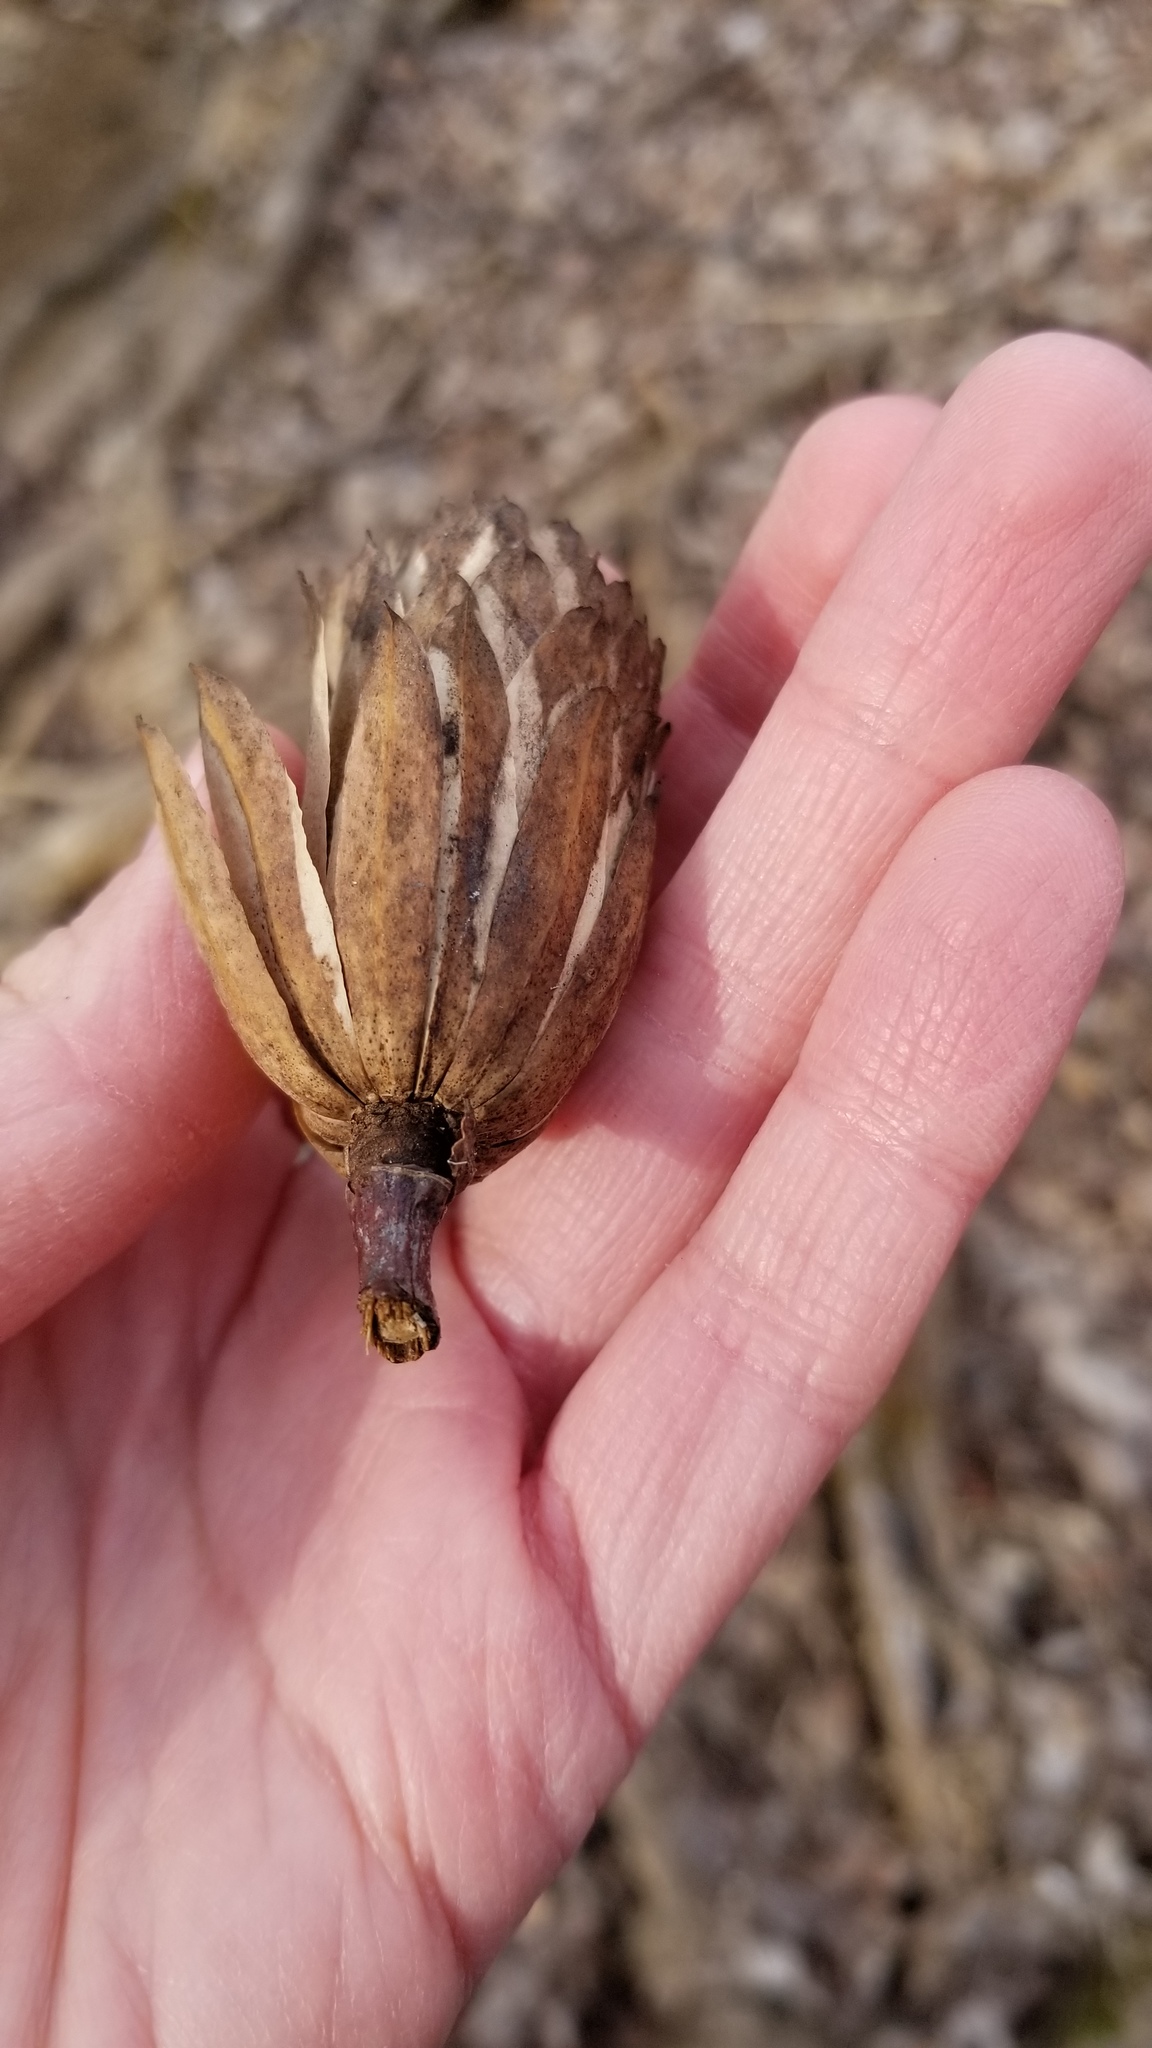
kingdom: Plantae
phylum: Tracheophyta
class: Magnoliopsida
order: Magnoliales
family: Magnoliaceae
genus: Liriodendron
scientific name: Liriodendron tulipifera
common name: Tulip tree
